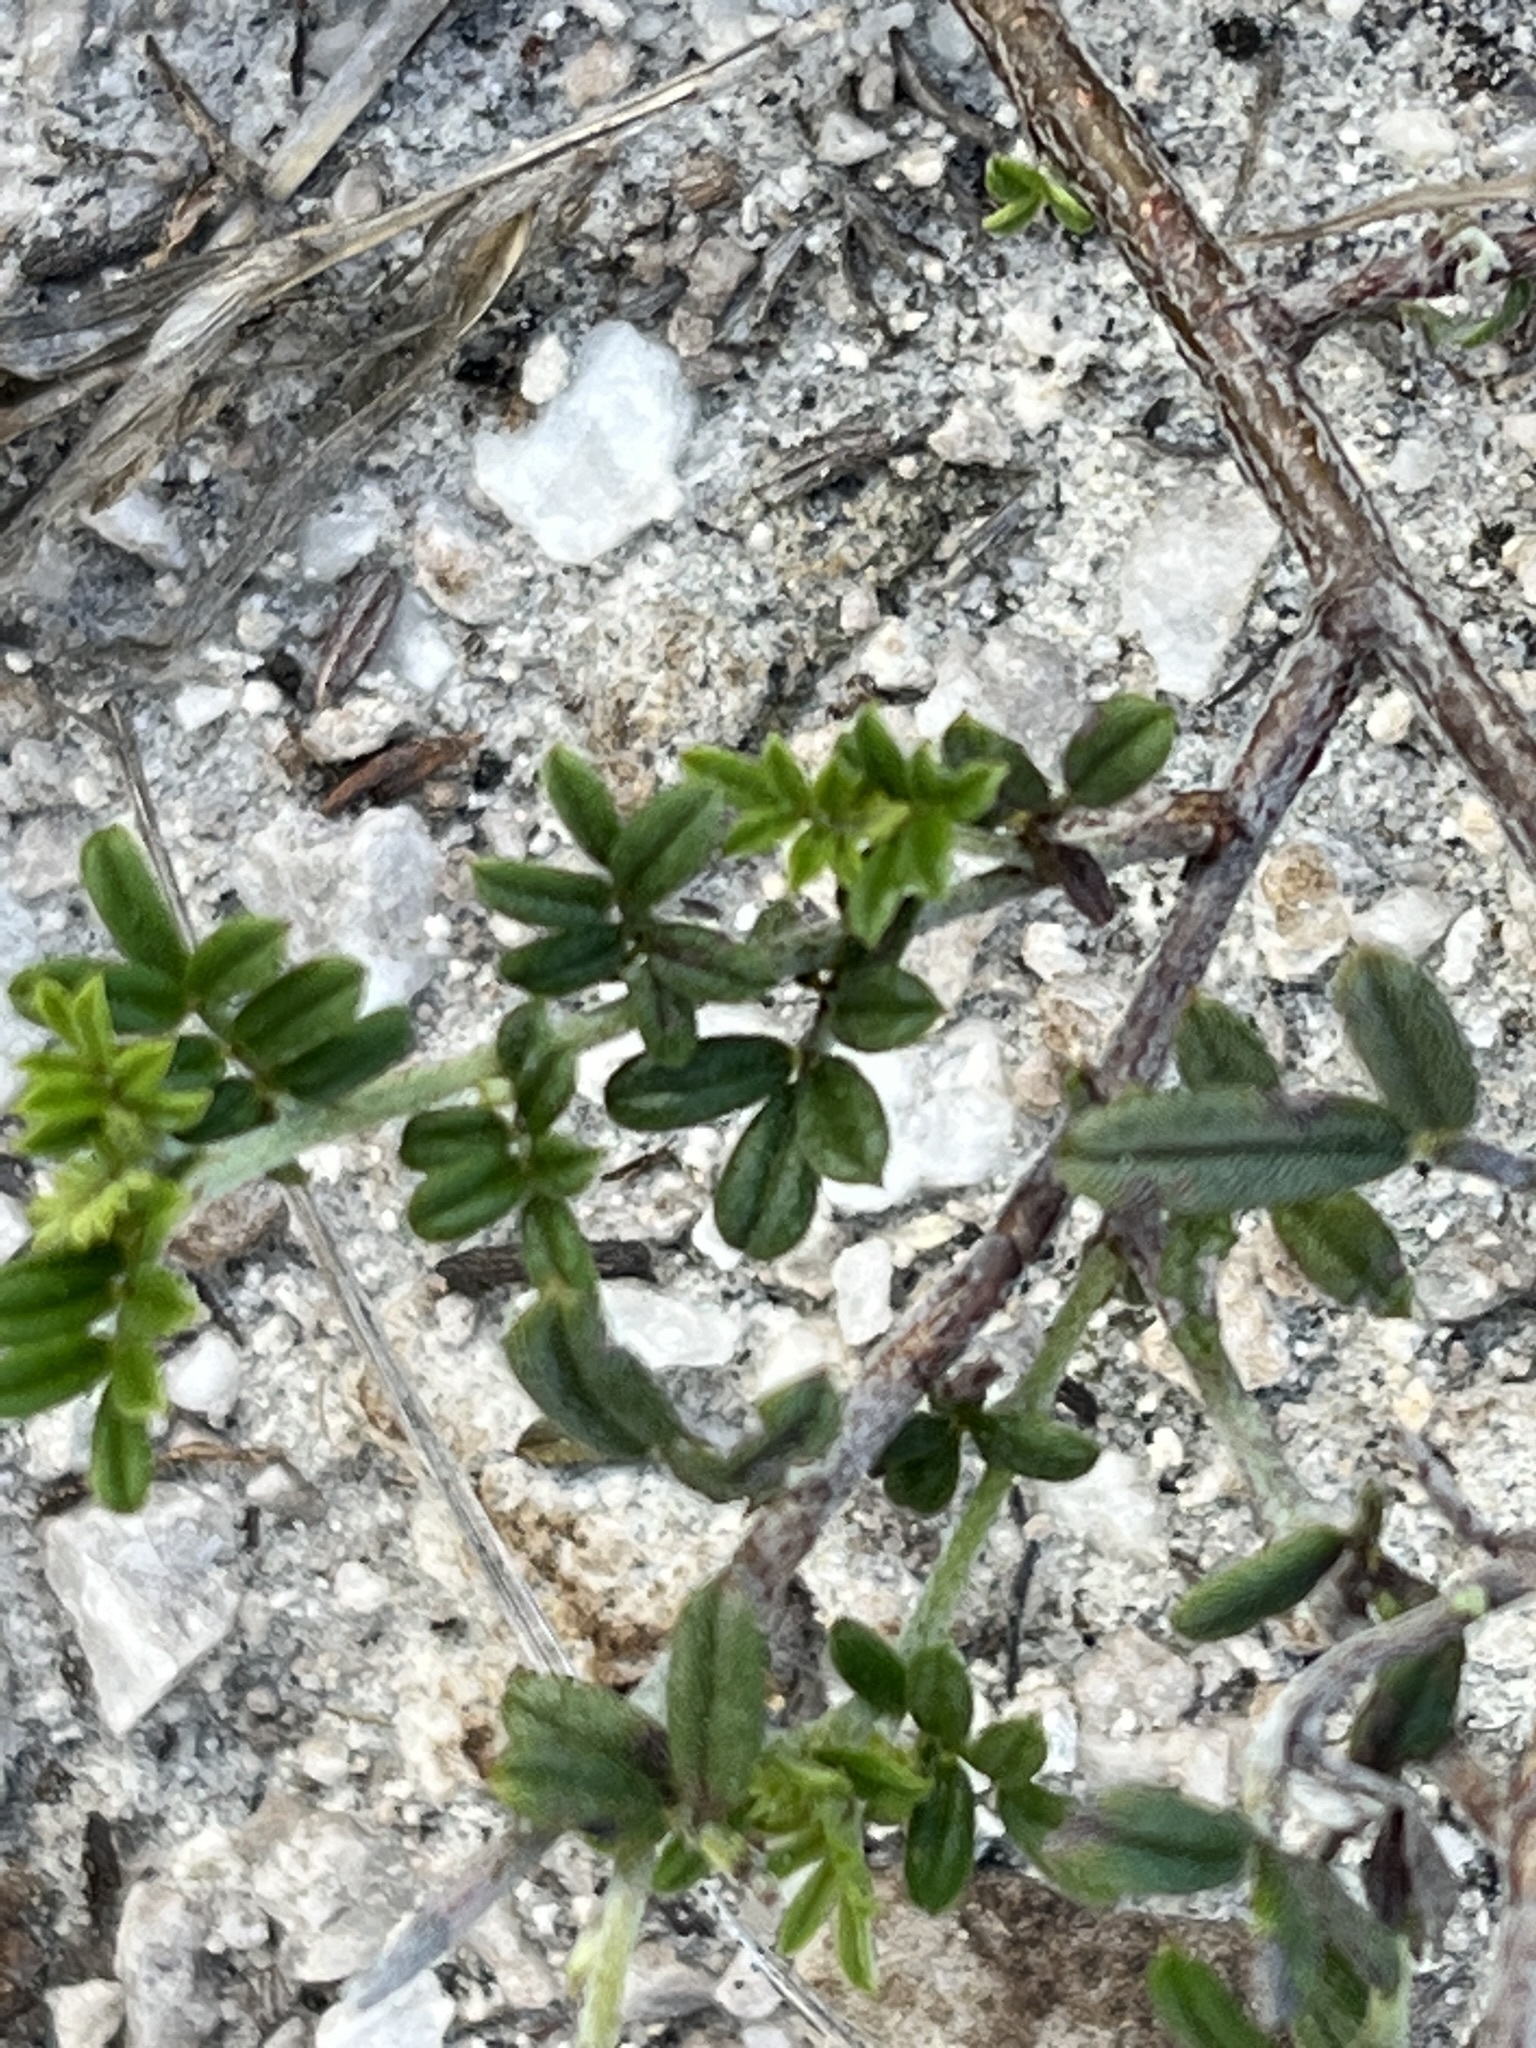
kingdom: Plantae
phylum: Tracheophyta
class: Magnoliopsida
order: Fabales
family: Fabaceae
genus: Indigofera
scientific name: Indigofera angustifolia
